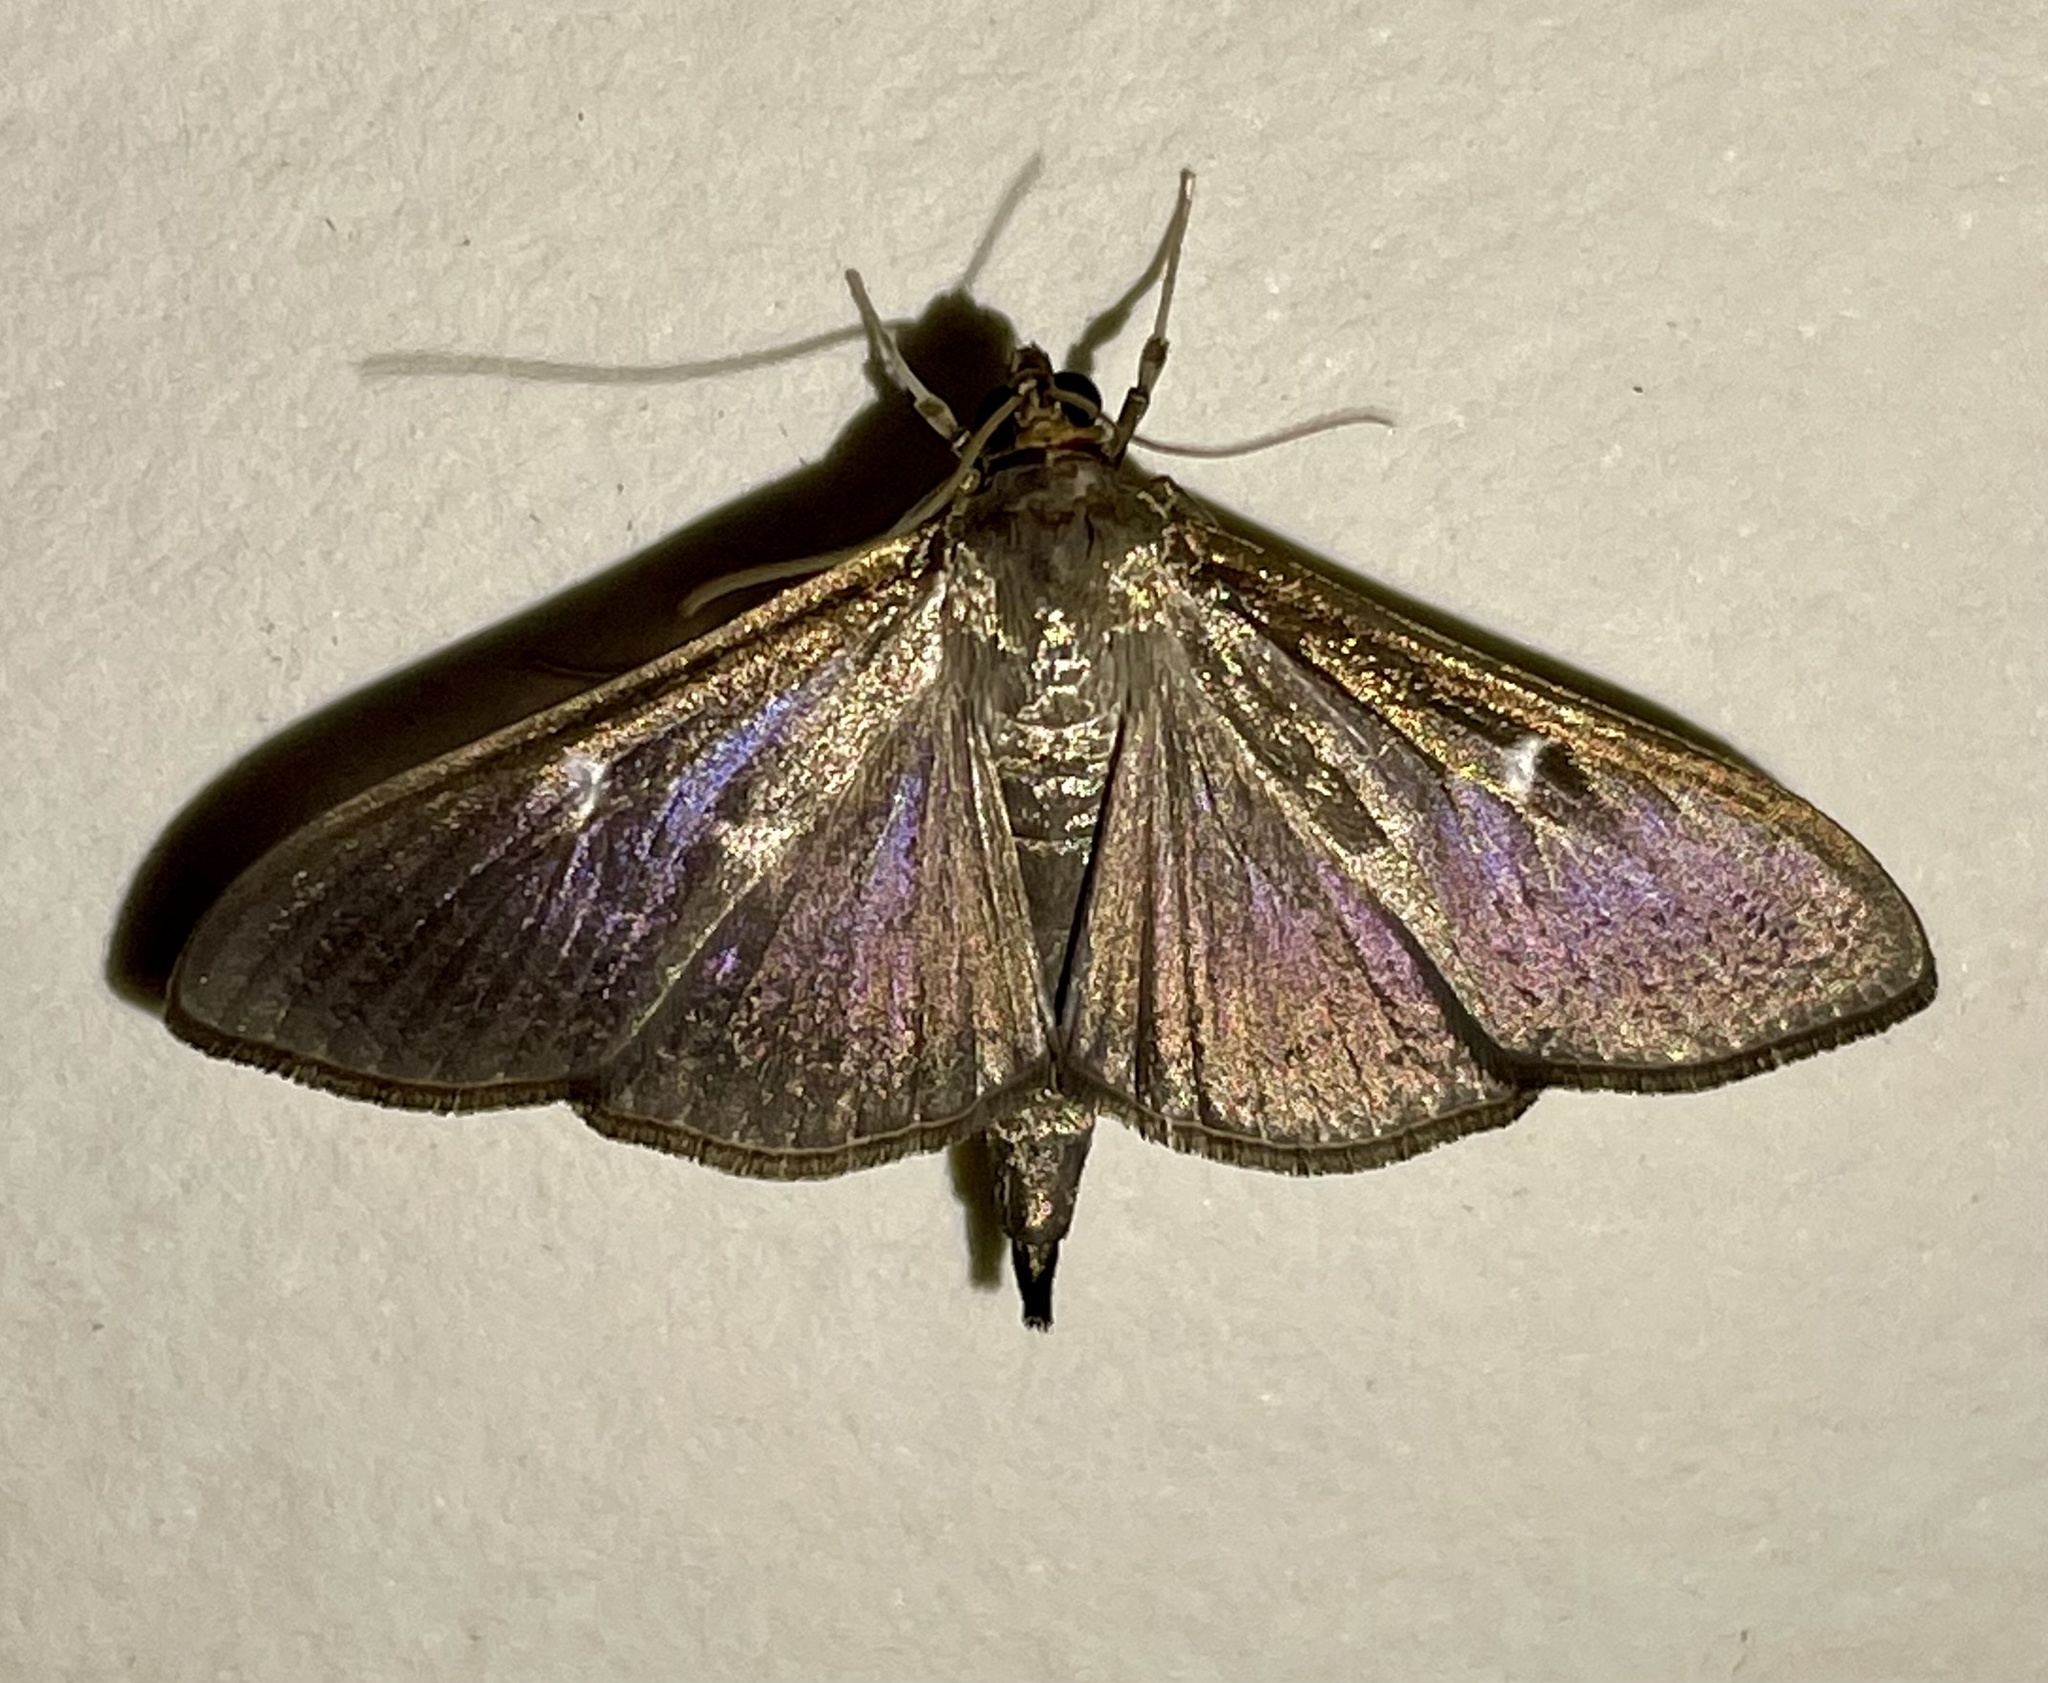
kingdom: Animalia
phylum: Arthropoda
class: Insecta
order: Lepidoptera
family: Crambidae
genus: Cydalima
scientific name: Cydalima perspectalis
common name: Box tree moth
